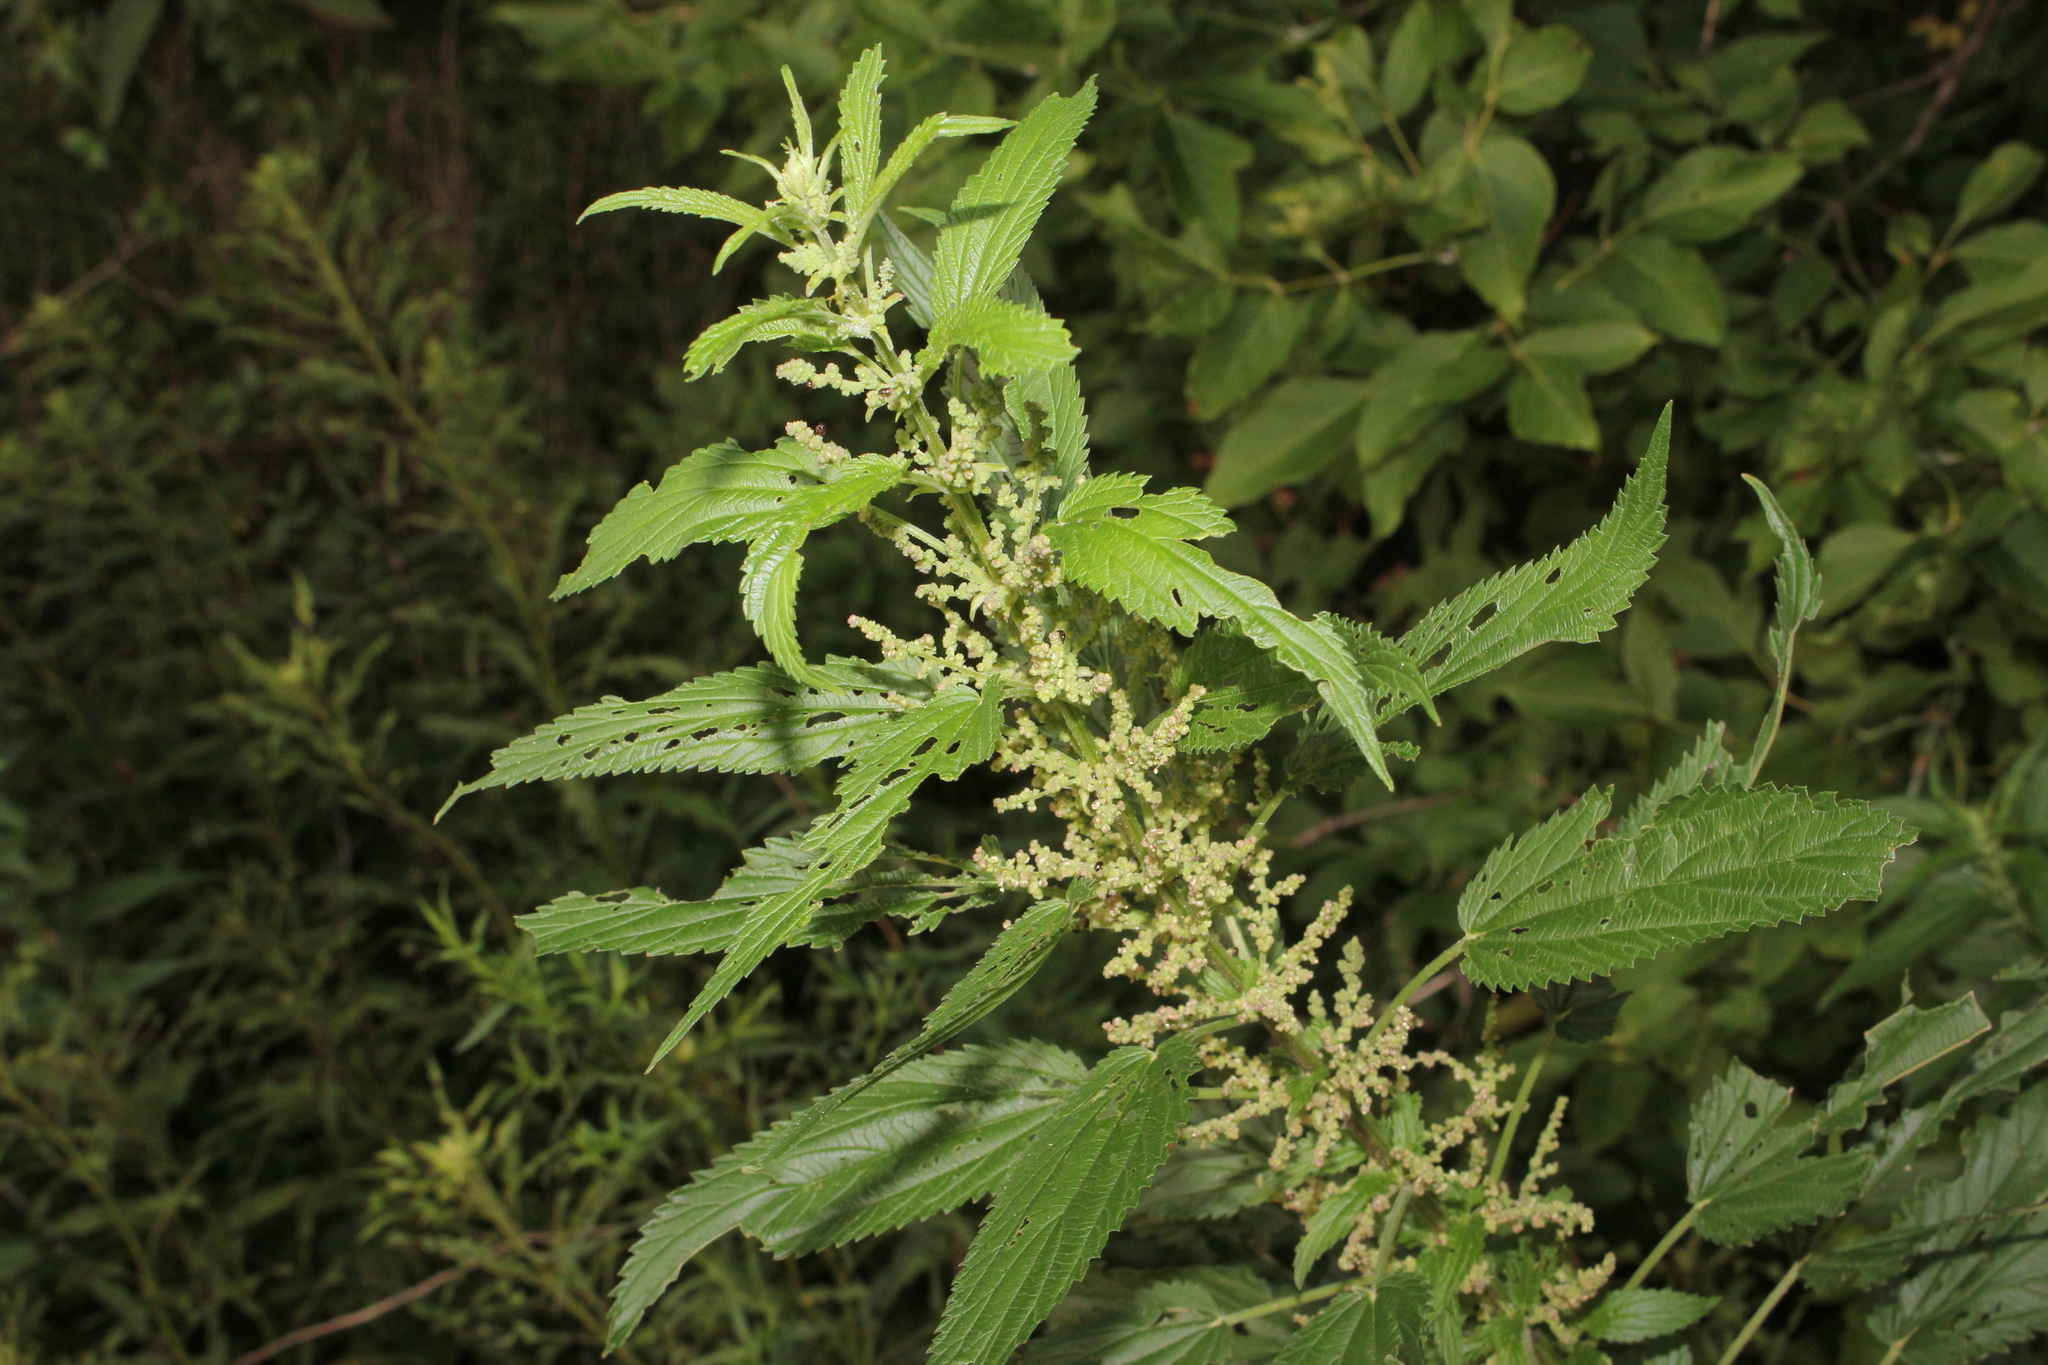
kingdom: Plantae
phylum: Tracheophyta
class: Magnoliopsida
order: Rosales
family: Urticaceae
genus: Urtica
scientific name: Urtica gracilis
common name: Slender stinging nettle
